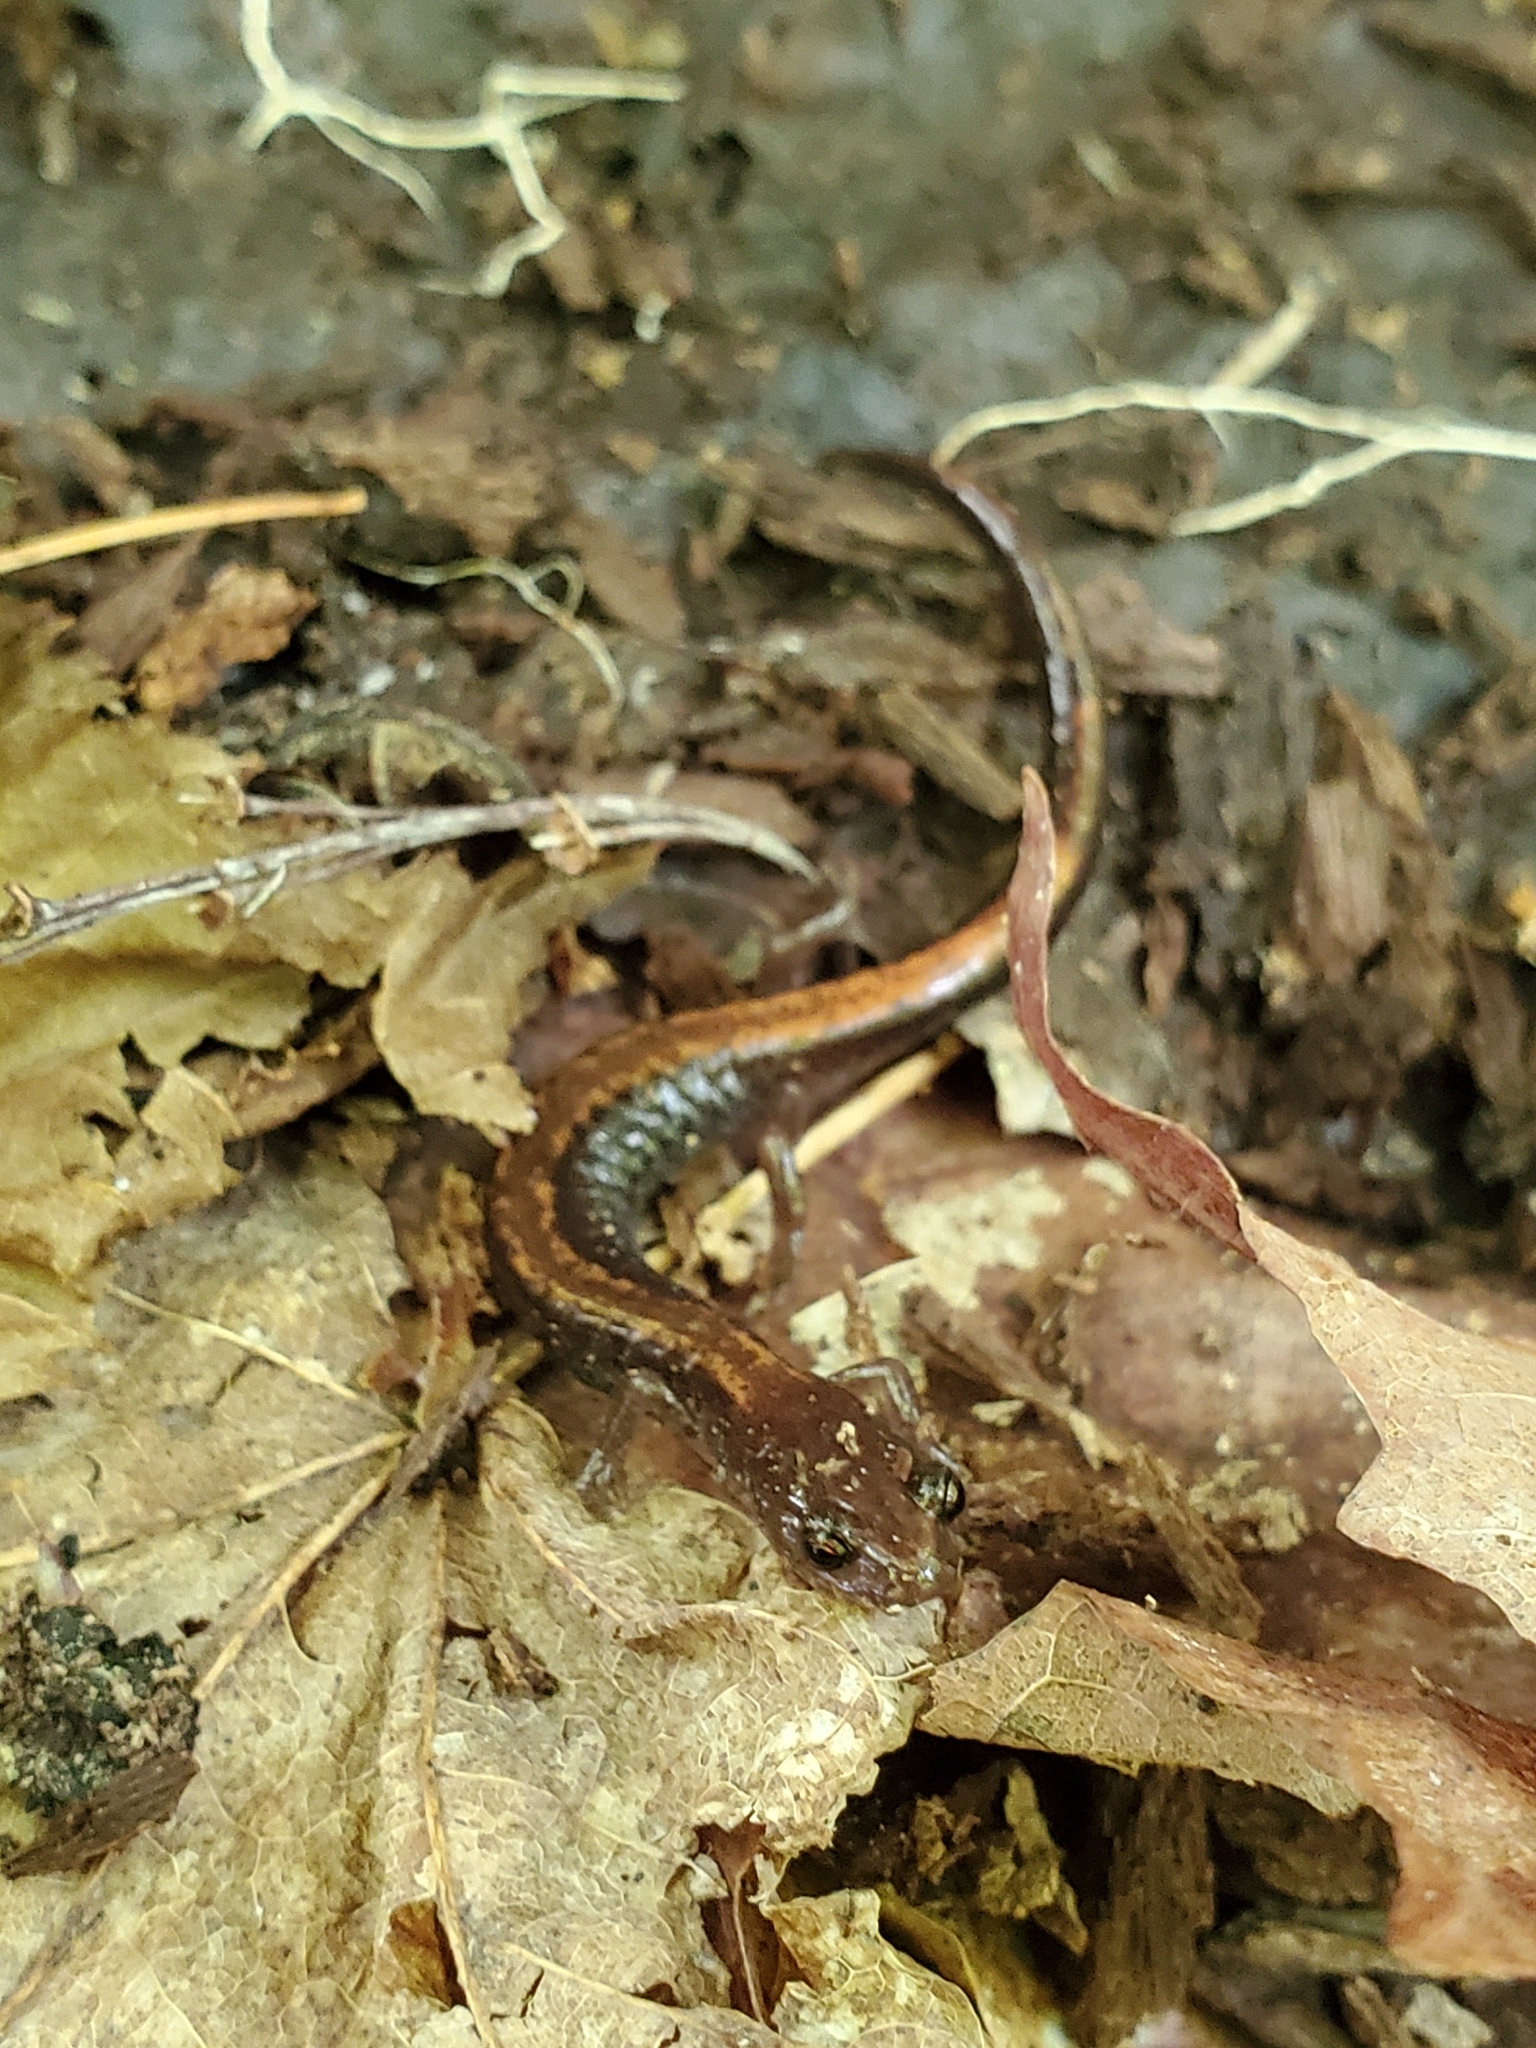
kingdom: Animalia
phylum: Chordata
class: Amphibia
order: Caudata
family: Plethodontidae
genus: Plethodon
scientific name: Plethodon cinereus
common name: Redback salamander
